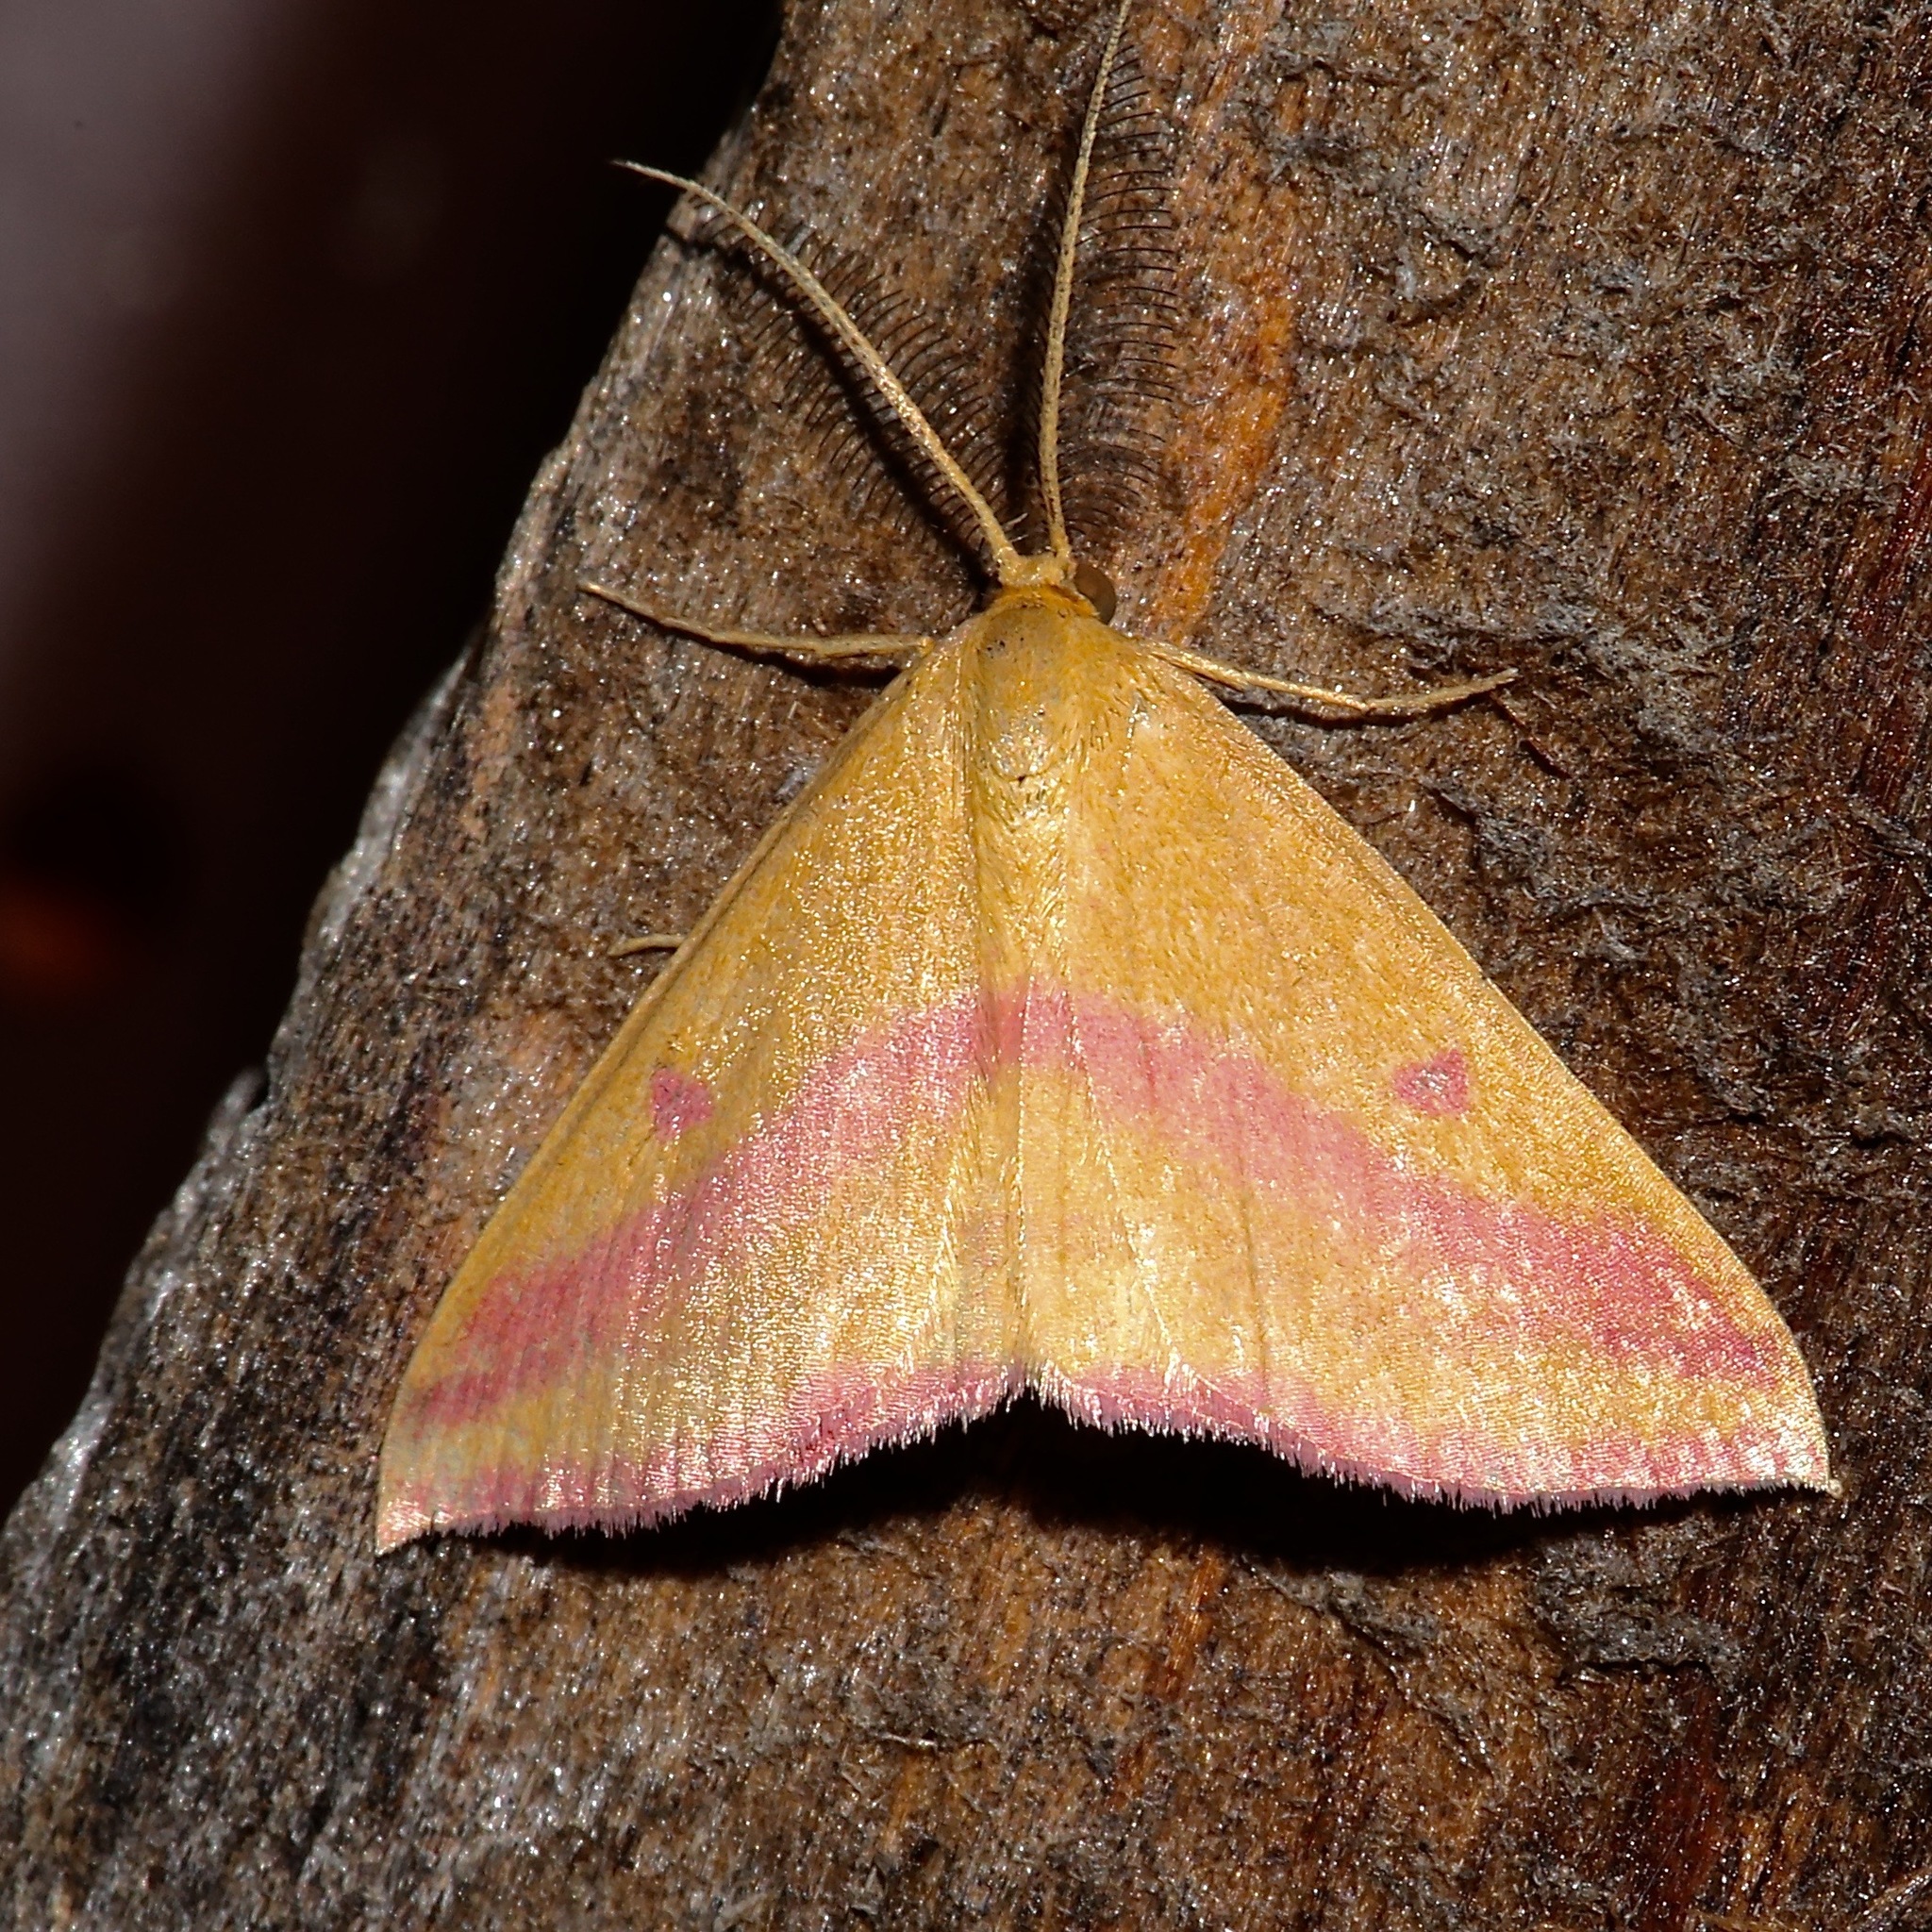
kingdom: Animalia
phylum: Arthropoda
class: Insecta
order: Lepidoptera
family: Geometridae
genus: Haematopis
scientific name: Haematopis grataria
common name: Chickweed geometer
